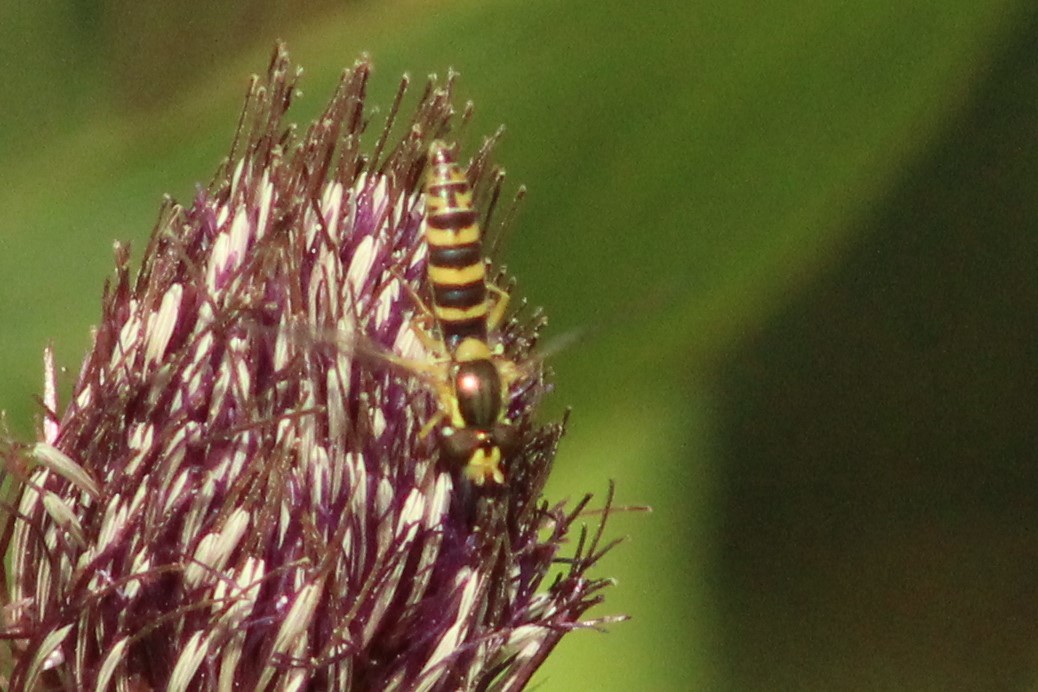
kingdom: Animalia
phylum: Arthropoda
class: Insecta
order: Diptera
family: Syrphidae
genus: Sphaerophoria
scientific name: Sphaerophoria
